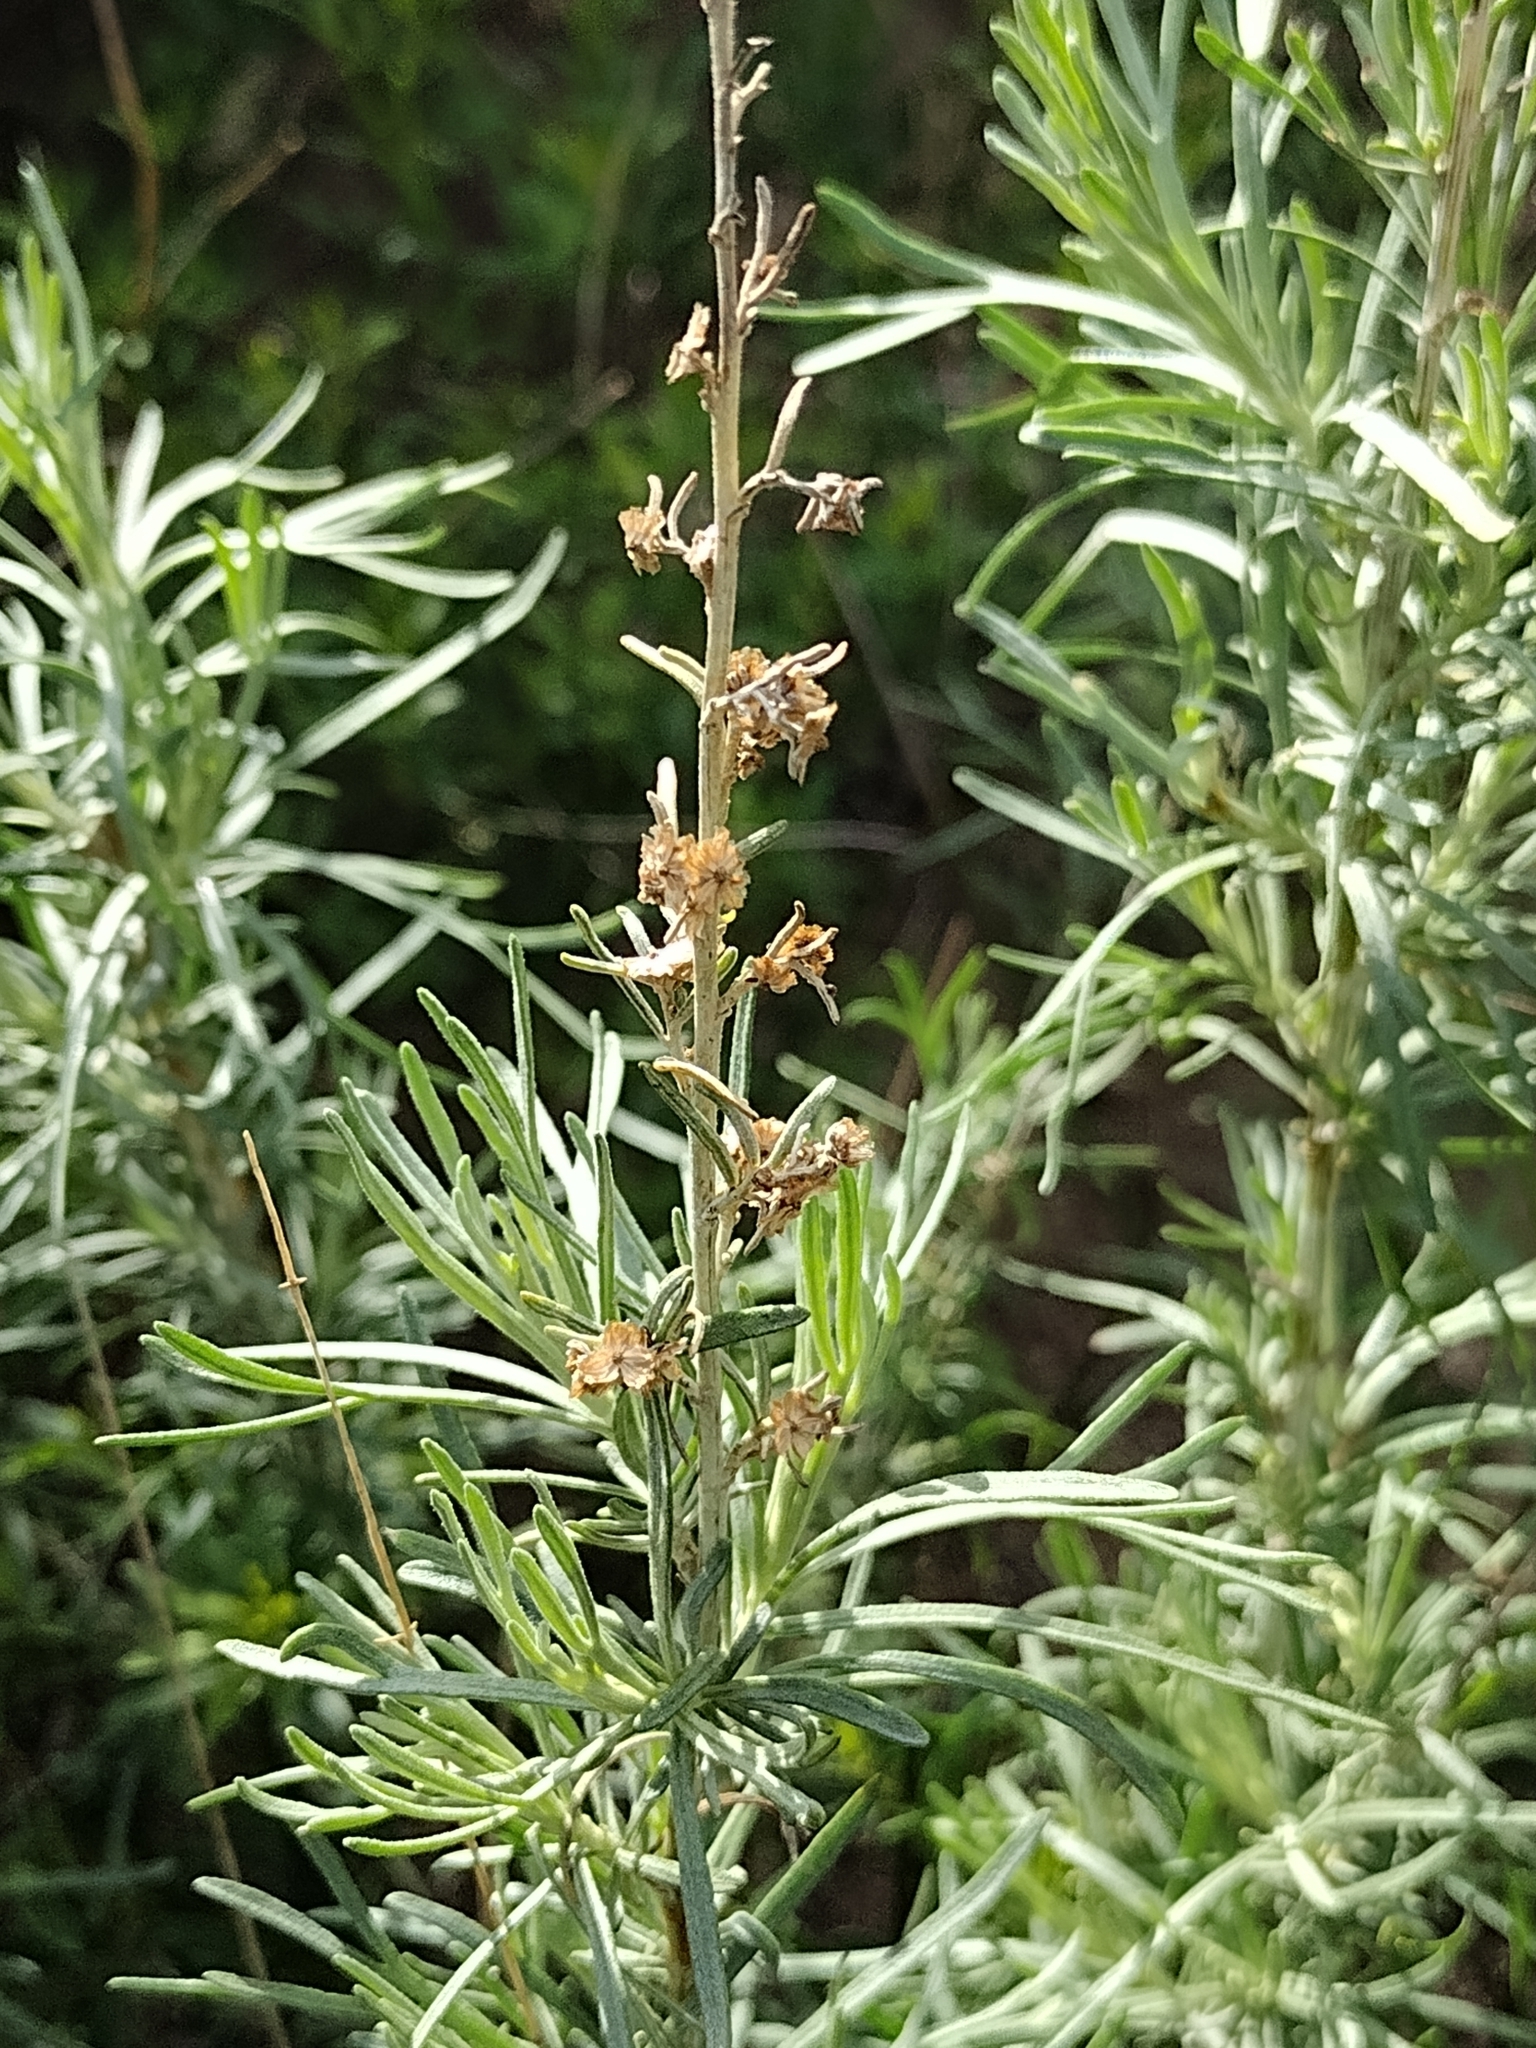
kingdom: Plantae
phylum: Tracheophyta
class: Magnoliopsida
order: Asterales
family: Asteraceae
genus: Artemisia
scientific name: Artemisia californica
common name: California sagebrush
